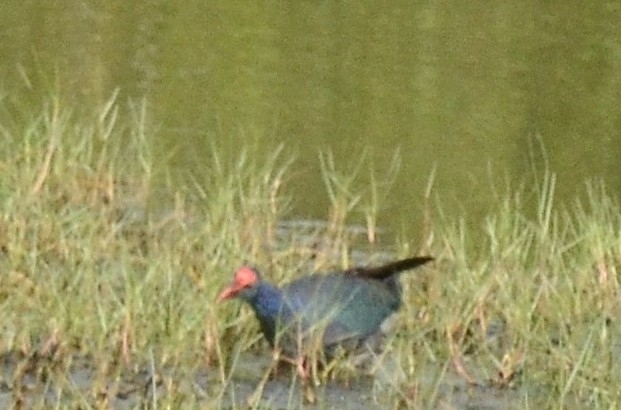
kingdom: Animalia
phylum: Chordata
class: Aves
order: Gruiformes
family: Rallidae
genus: Porphyrio
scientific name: Porphyrio porphyrio
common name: Purple swamphen
